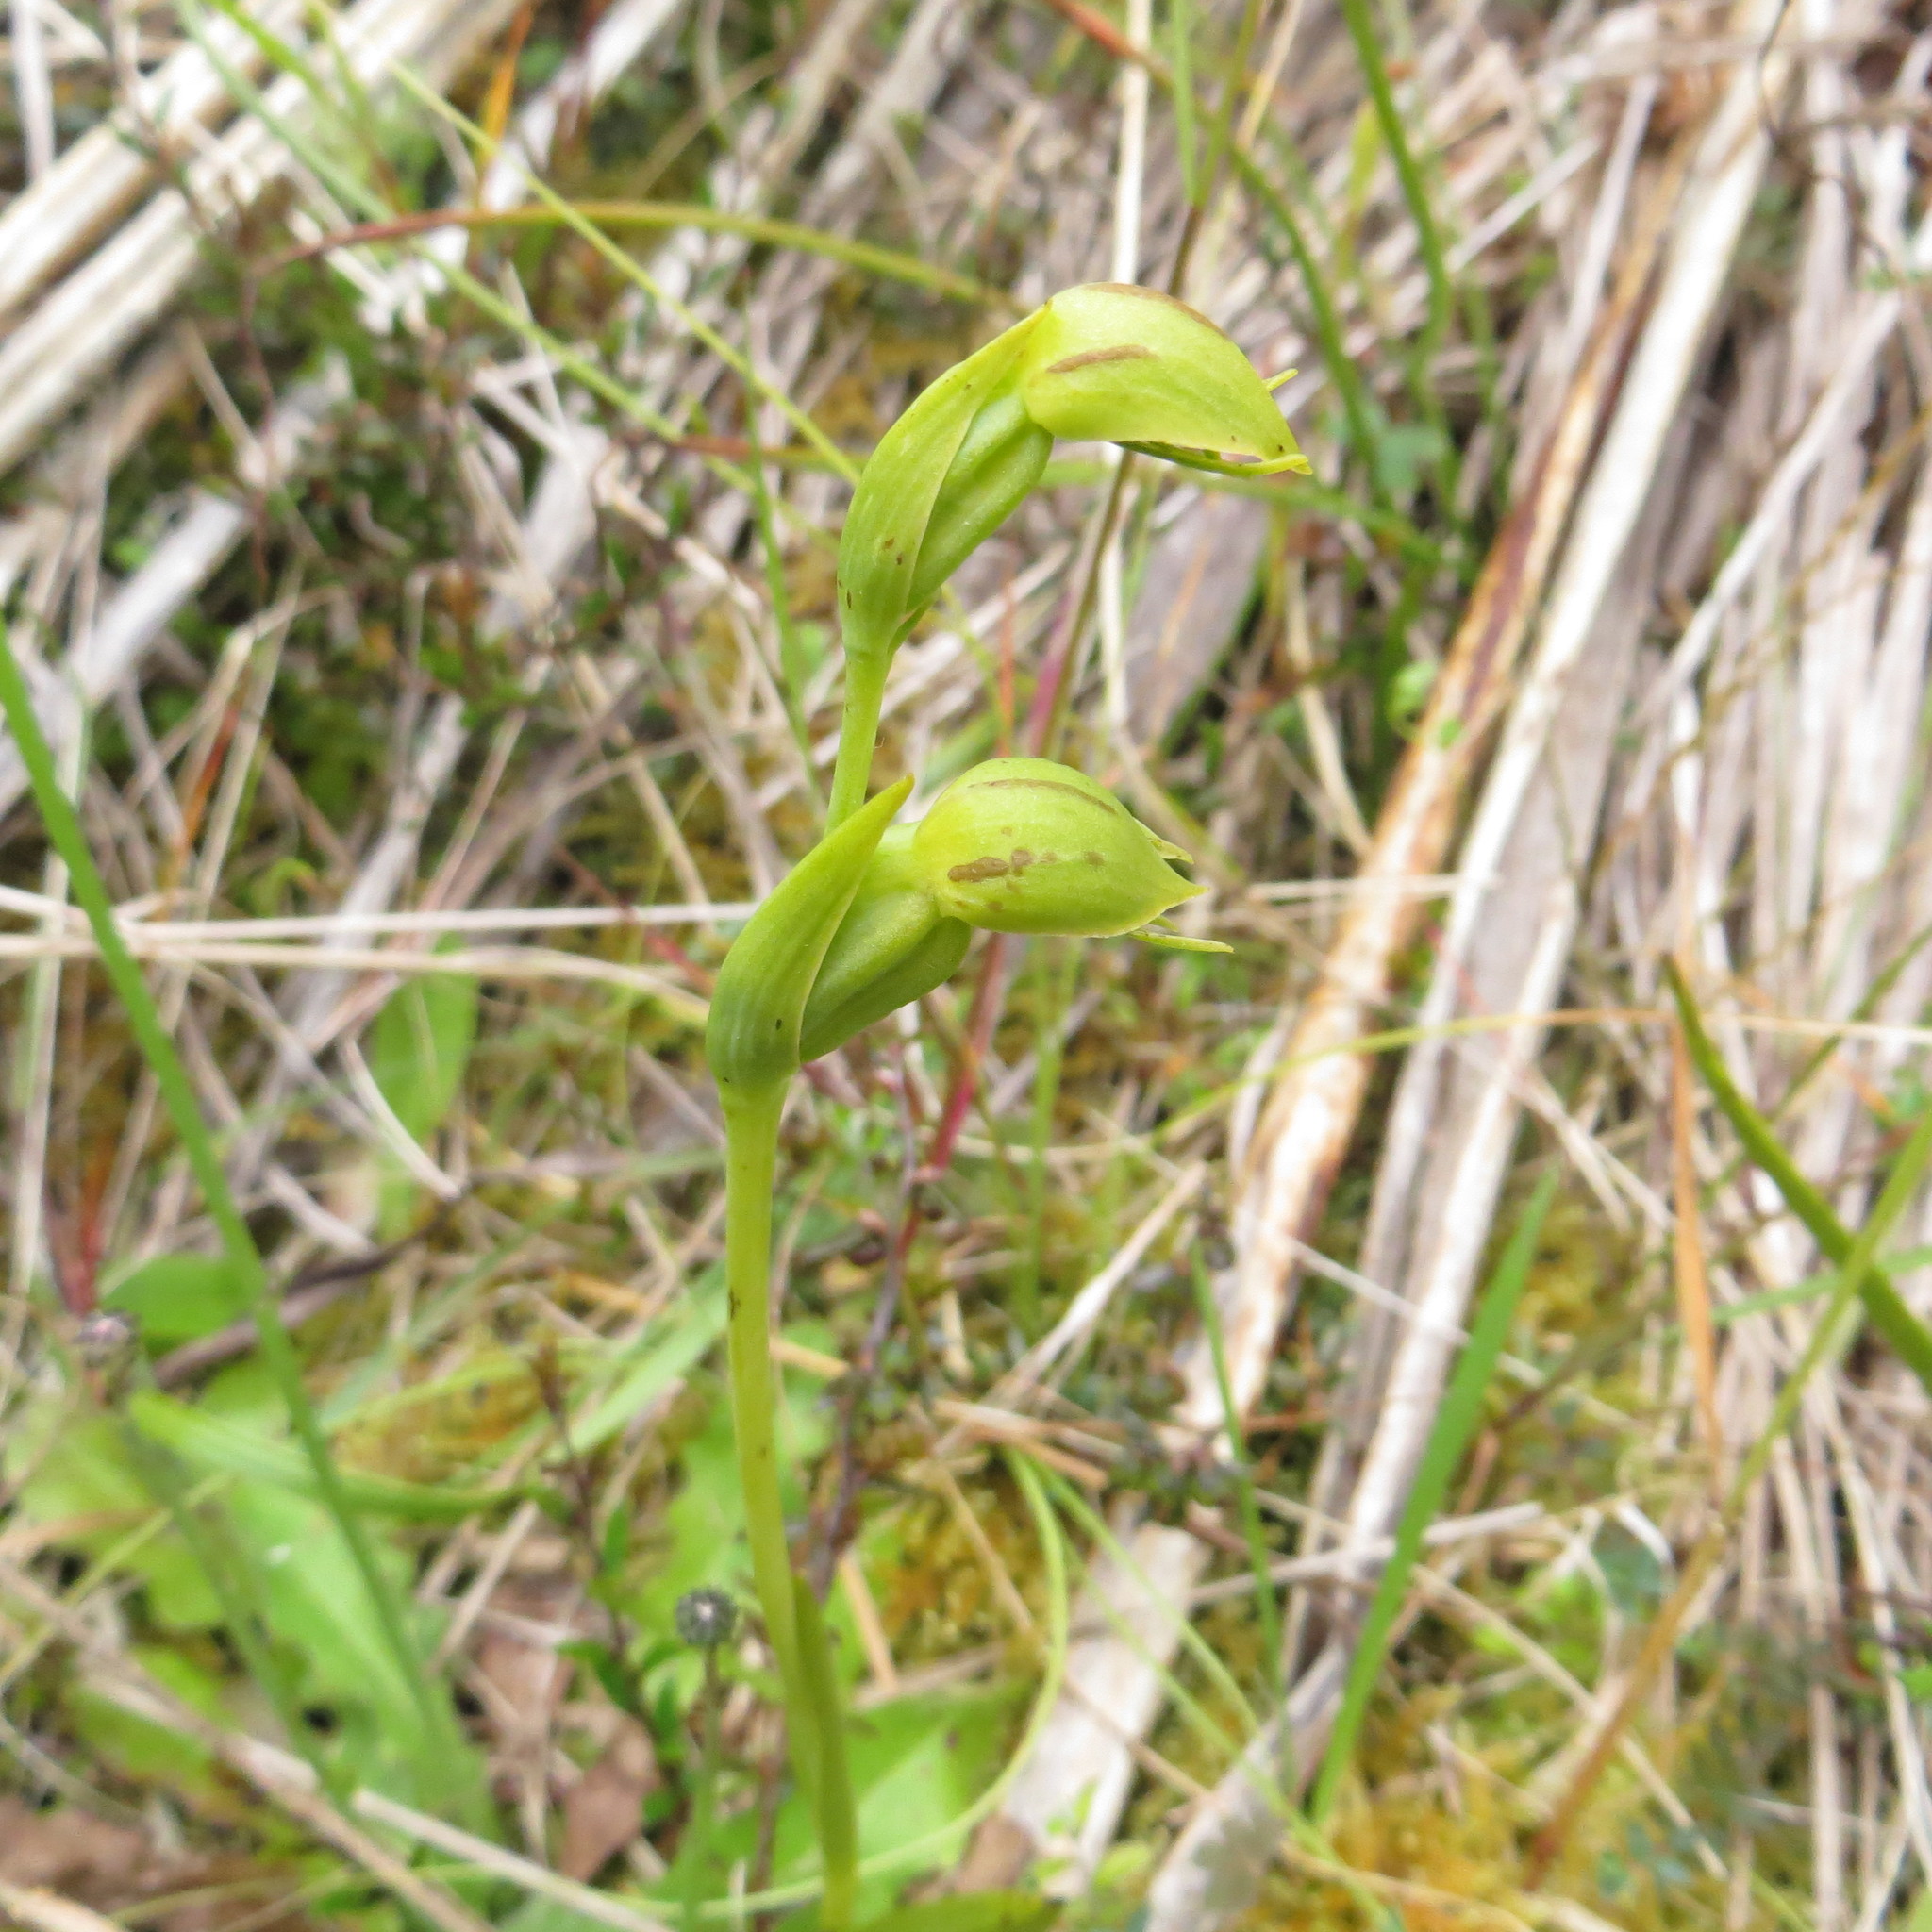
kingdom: Plantae
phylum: Tracheophyta
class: Liliopsida
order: Asparagales
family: Orchidaceae
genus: Waireia
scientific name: Waireia stenopetala
